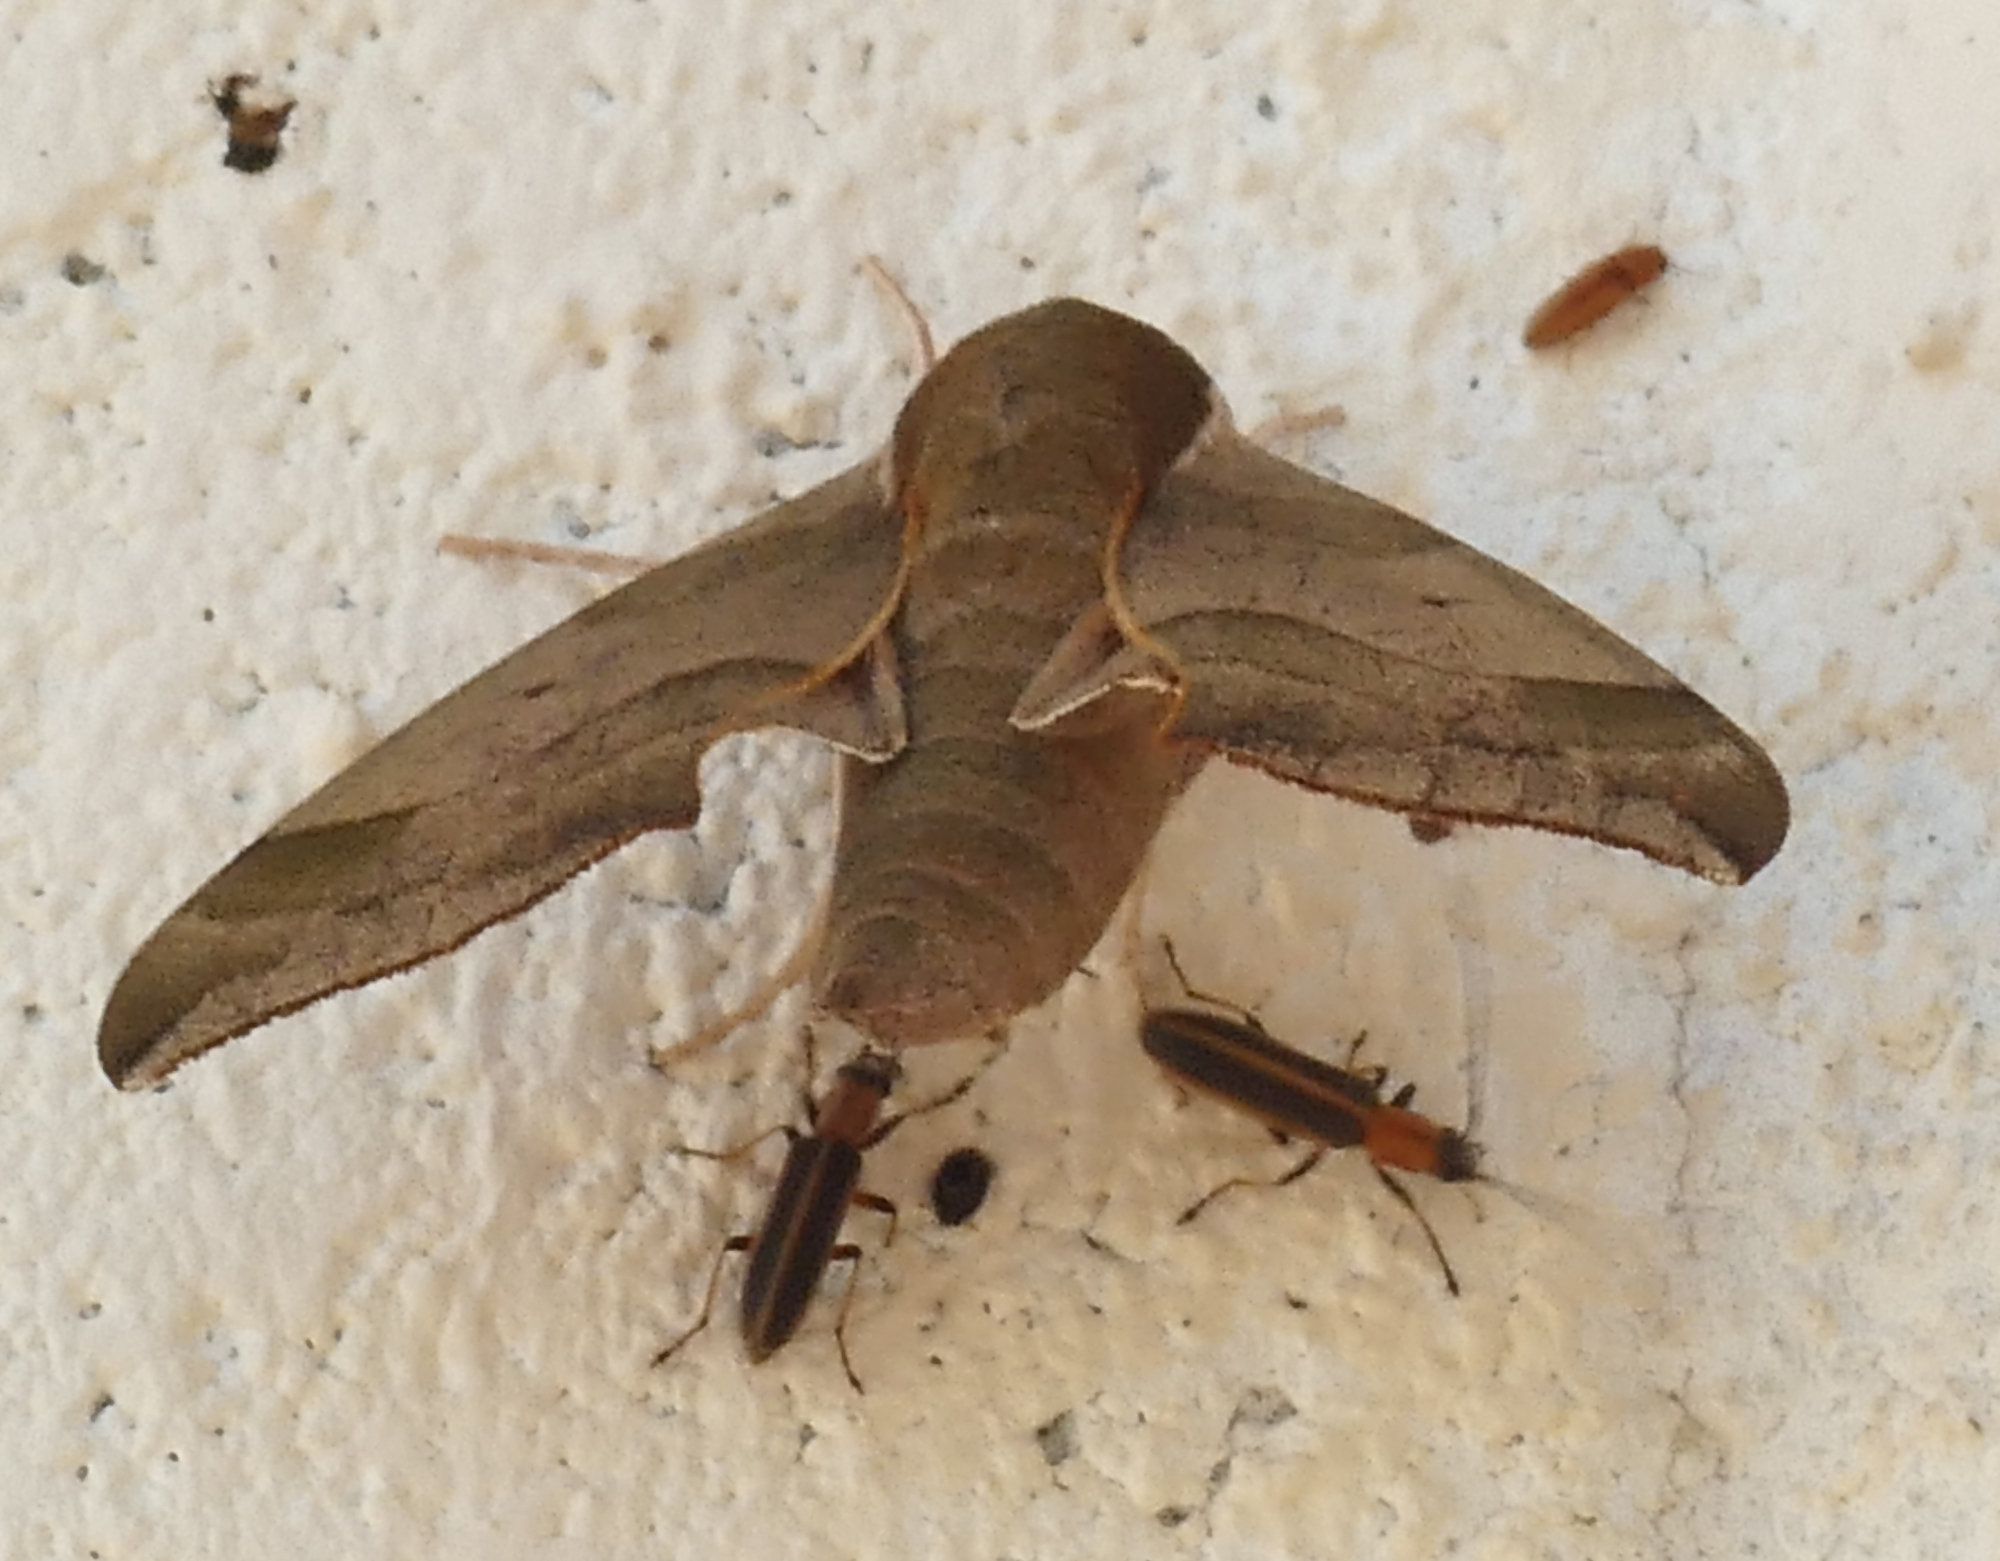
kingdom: Animalia
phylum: Arthropoda
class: Insecta
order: Lepidoptera
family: Sphingidae
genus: Darapsa
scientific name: Darapsa myron
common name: Hog sphinx
